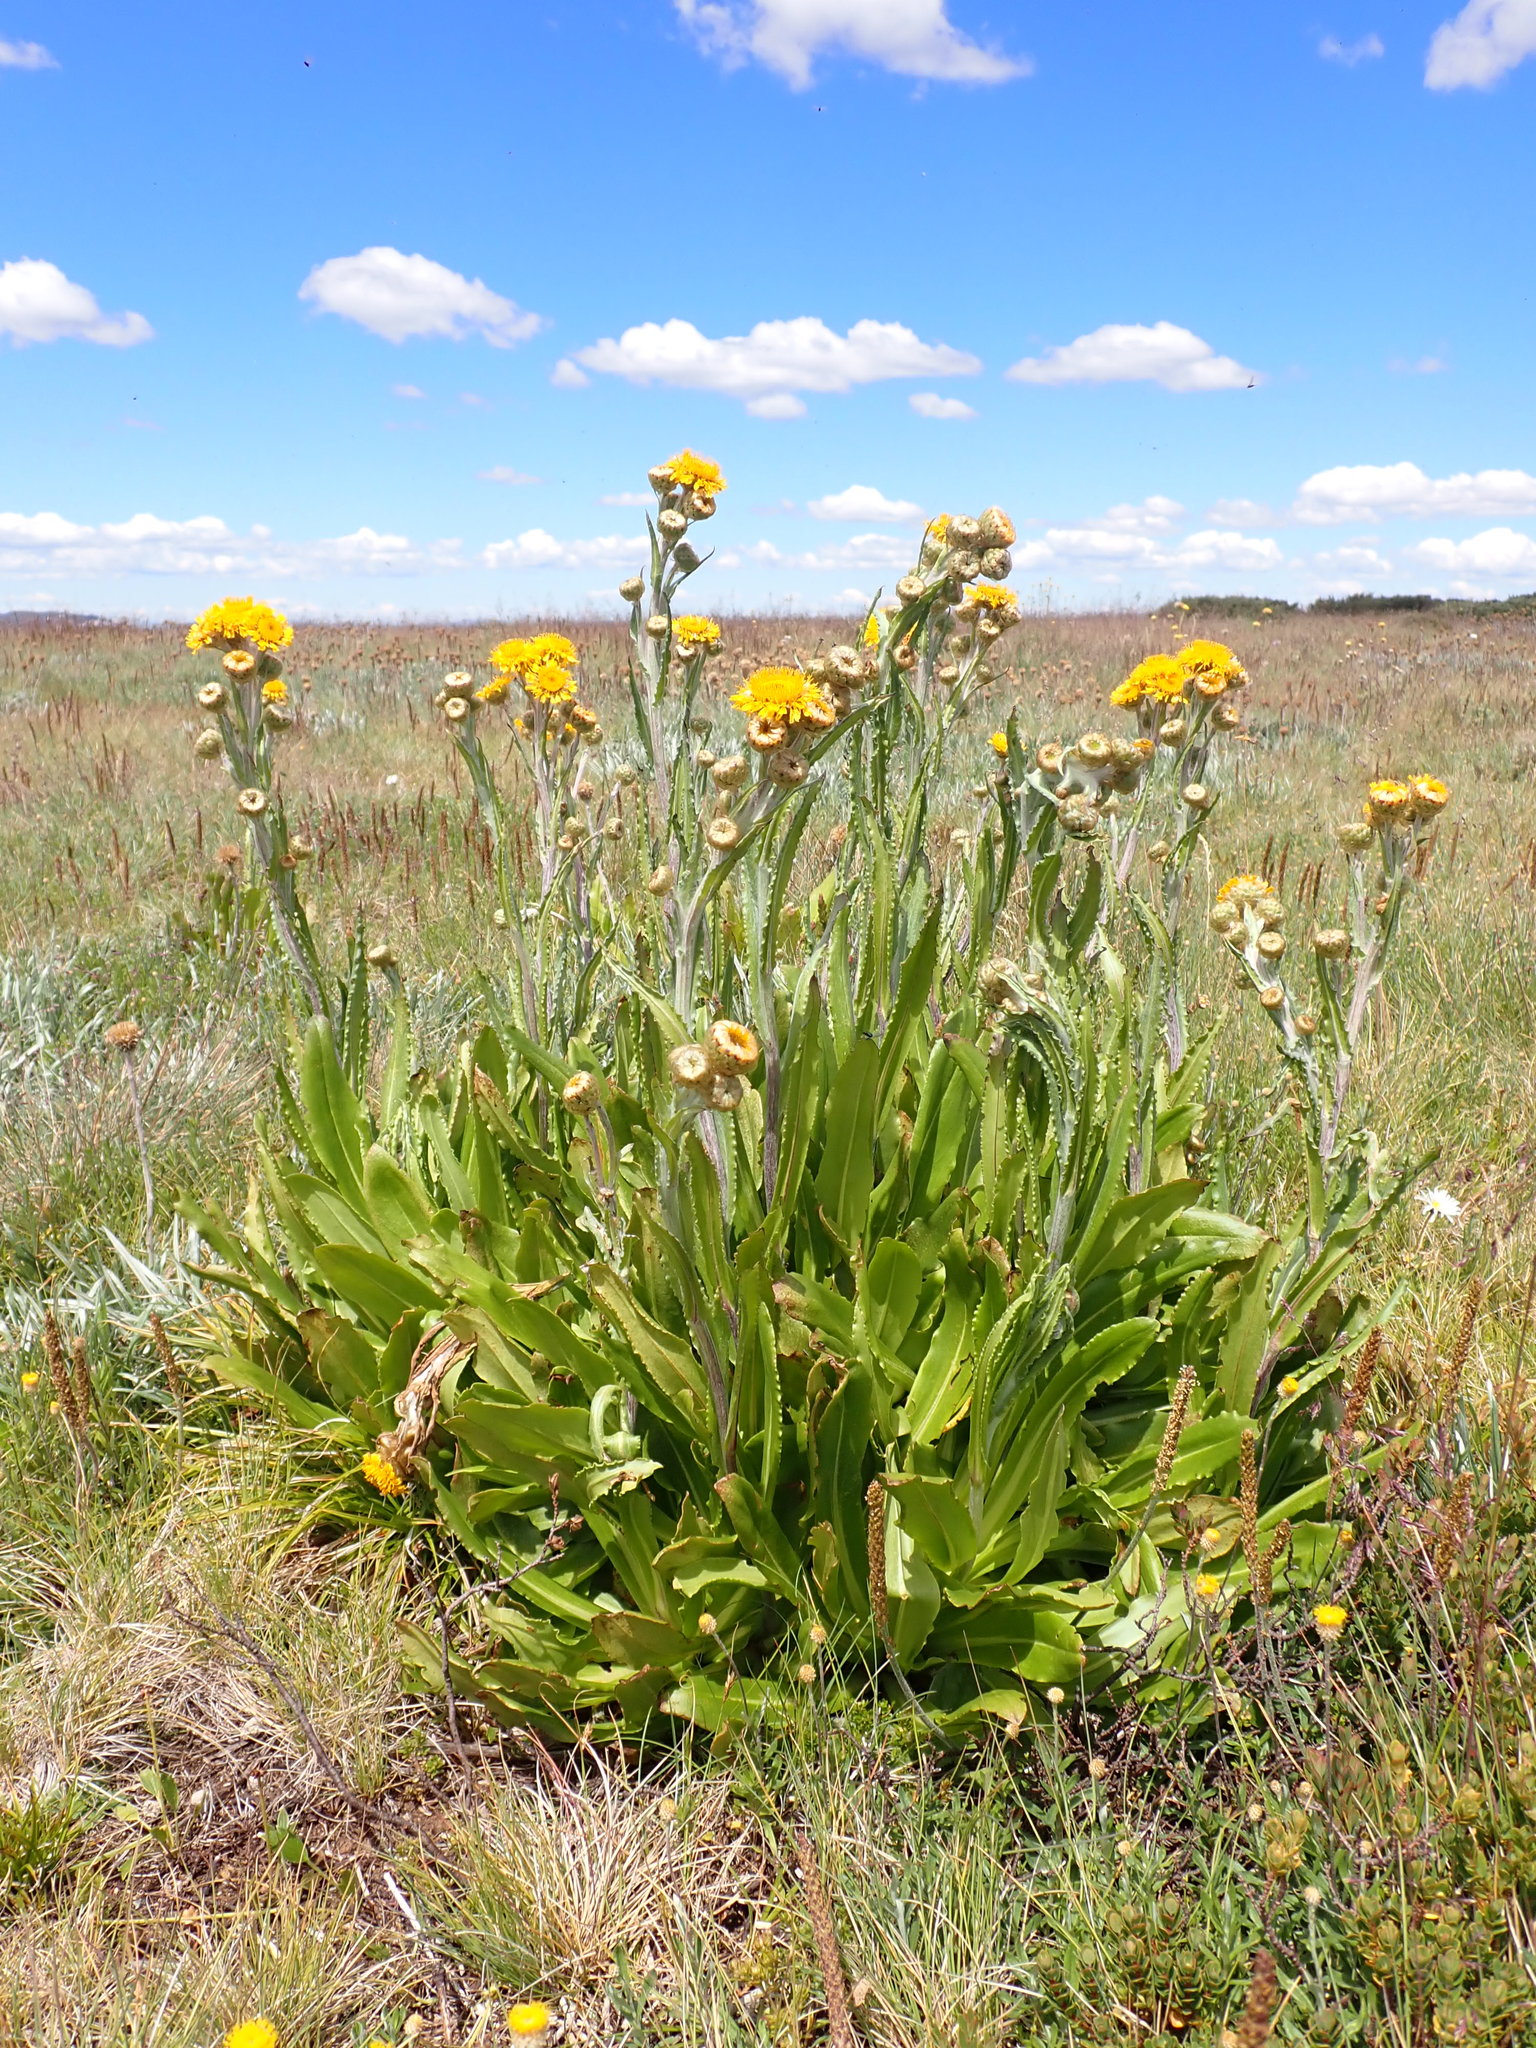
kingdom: Plantae
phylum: Tracheophyta
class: Magnoliopsida
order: Asterales
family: Asteraceae
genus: Podolepis
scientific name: Podolepis robusta
